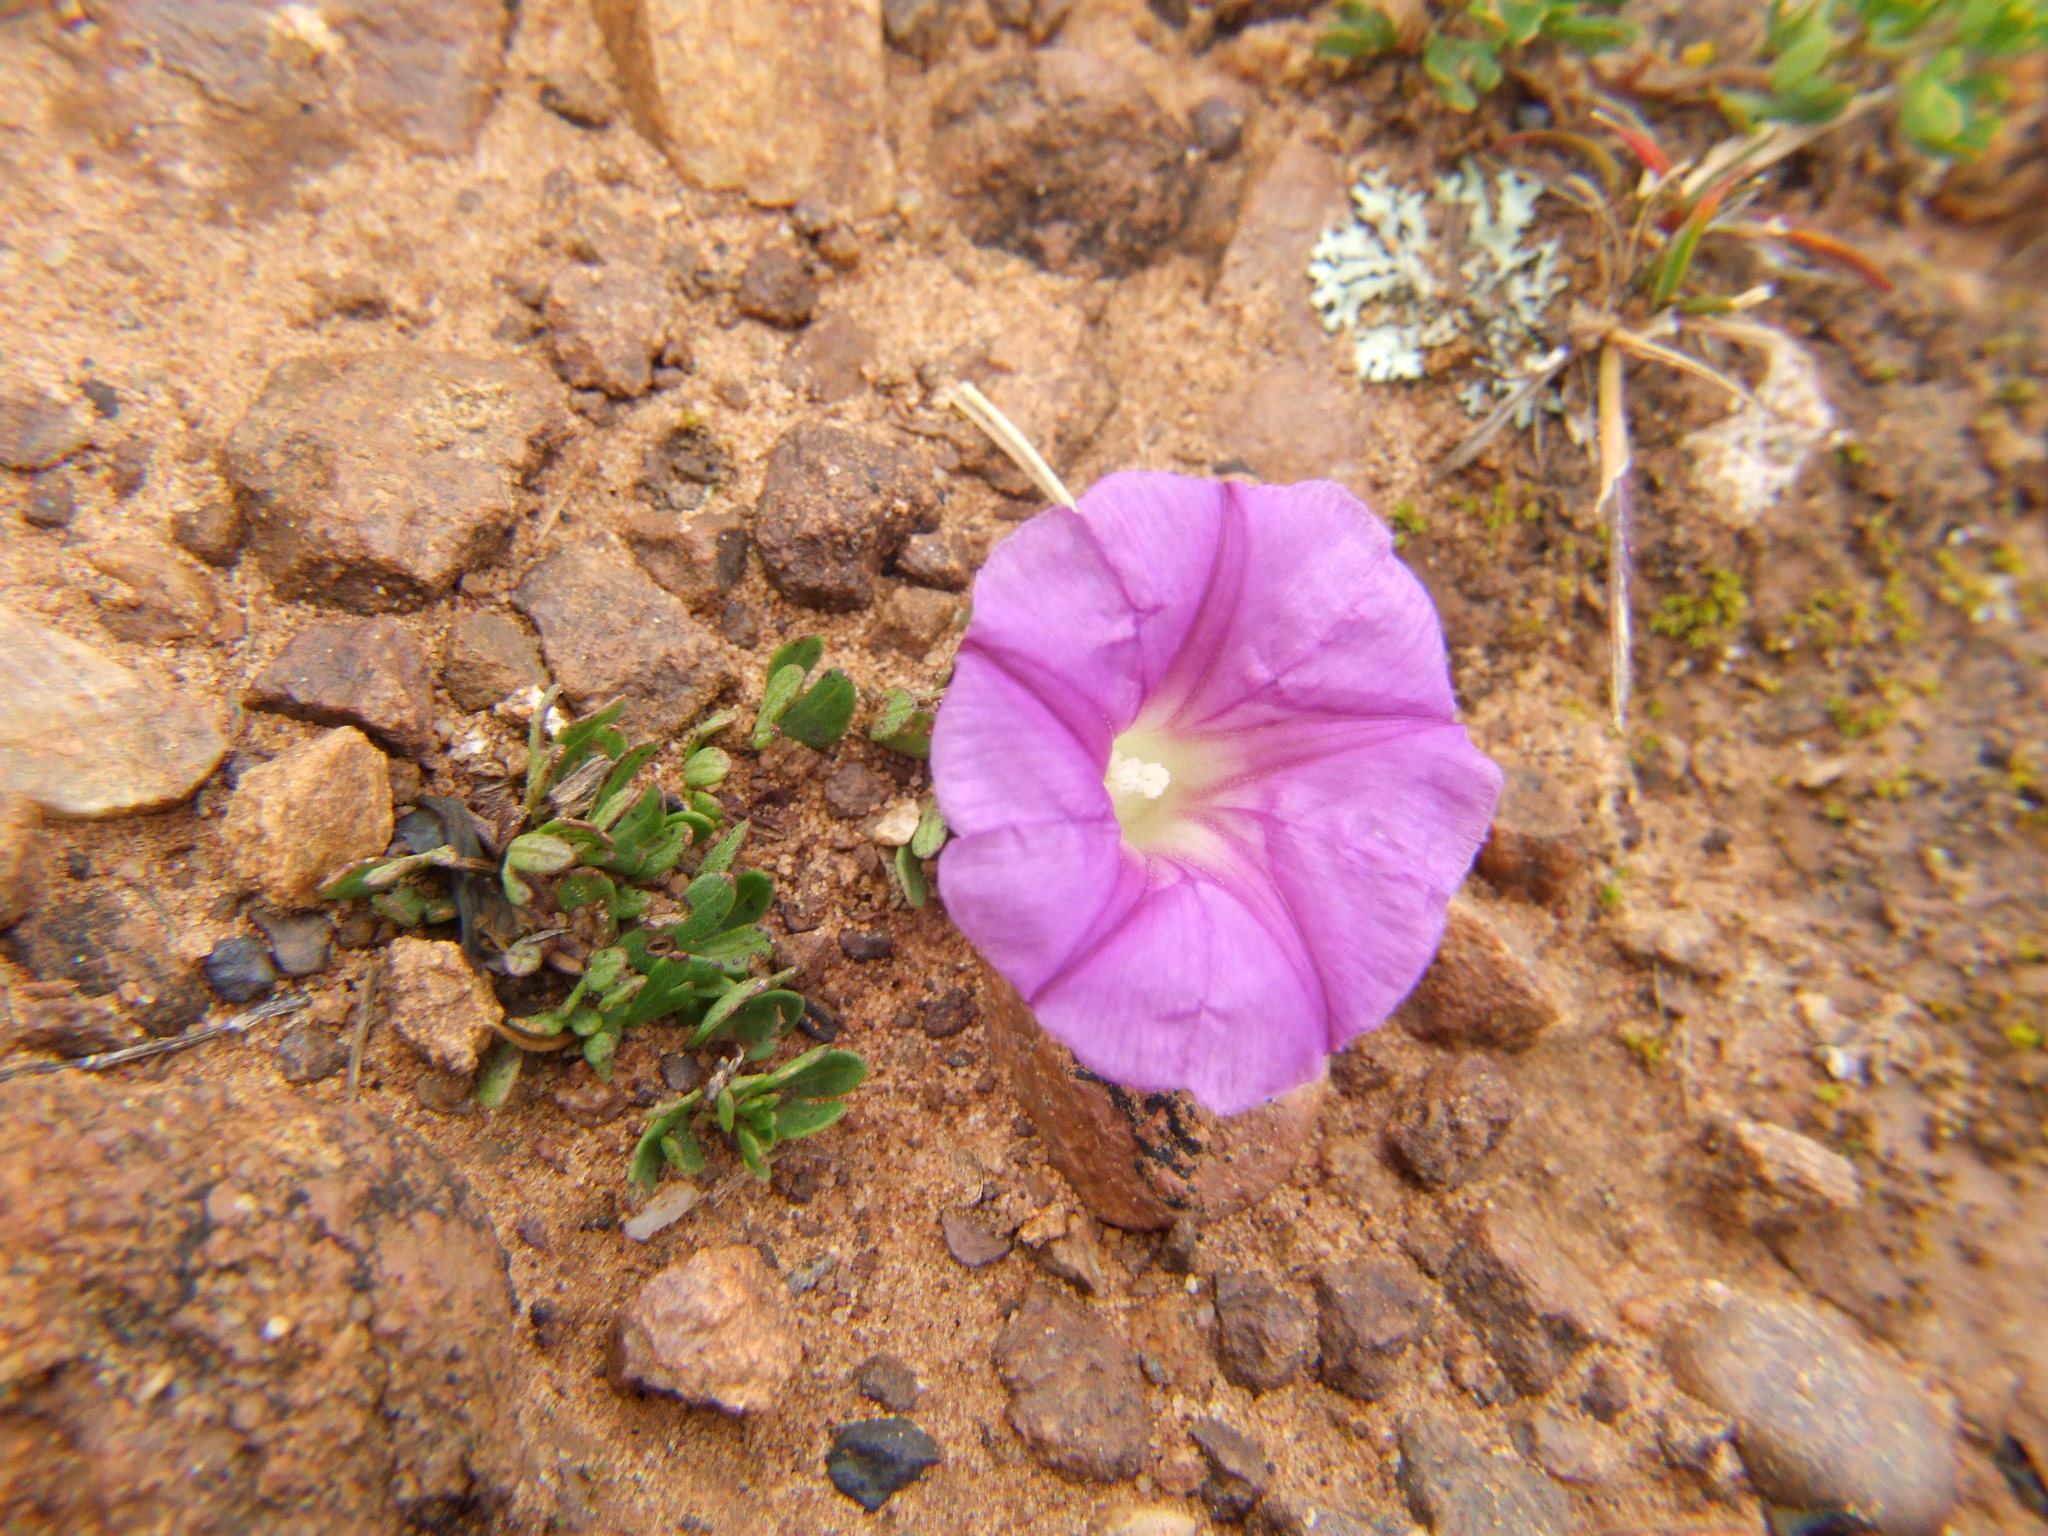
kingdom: Plantae
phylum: Tracheophyta
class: Magnoliopsida
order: Solanales
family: Convolvulaceae
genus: Ipomoea
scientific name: Ipomoea plummerae
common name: Plummer's morning-glory
